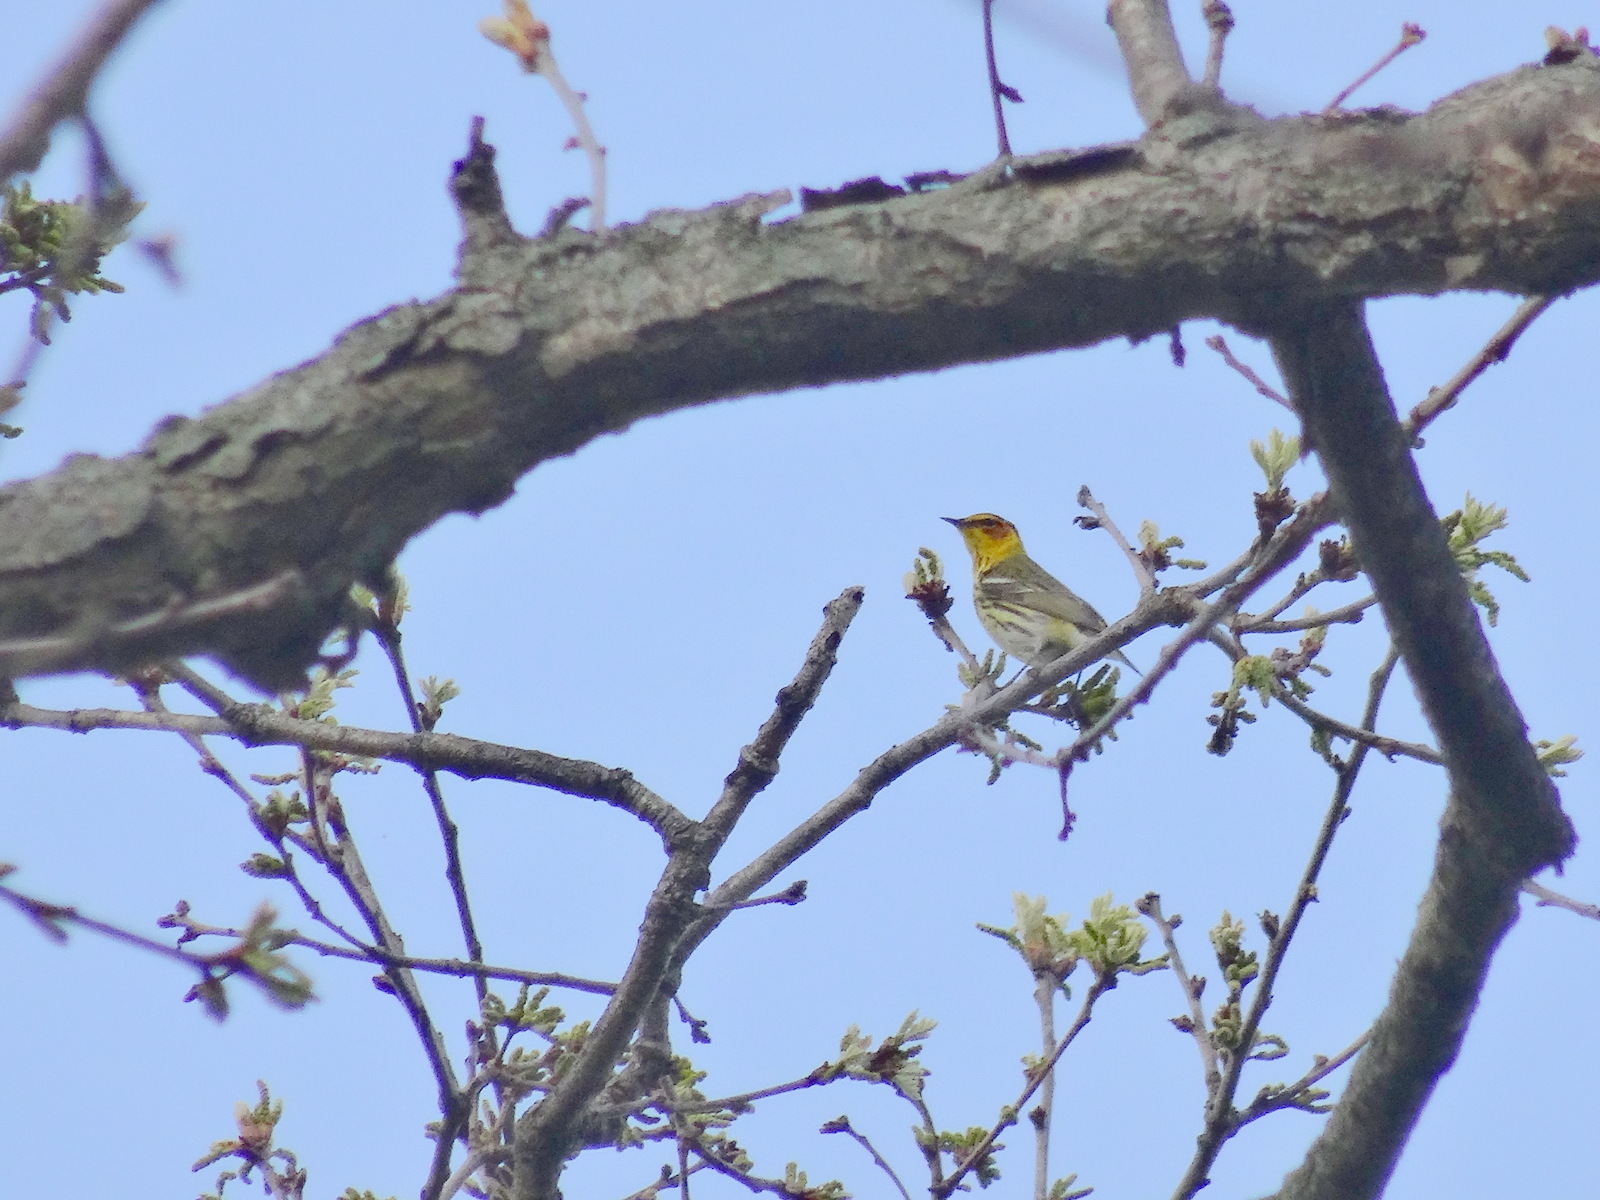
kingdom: Animalia
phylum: Chordata
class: Aves
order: Passeriformes
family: Parulidae
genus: Setophaga
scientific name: Setophaga tigrina
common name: Cape may warbler
